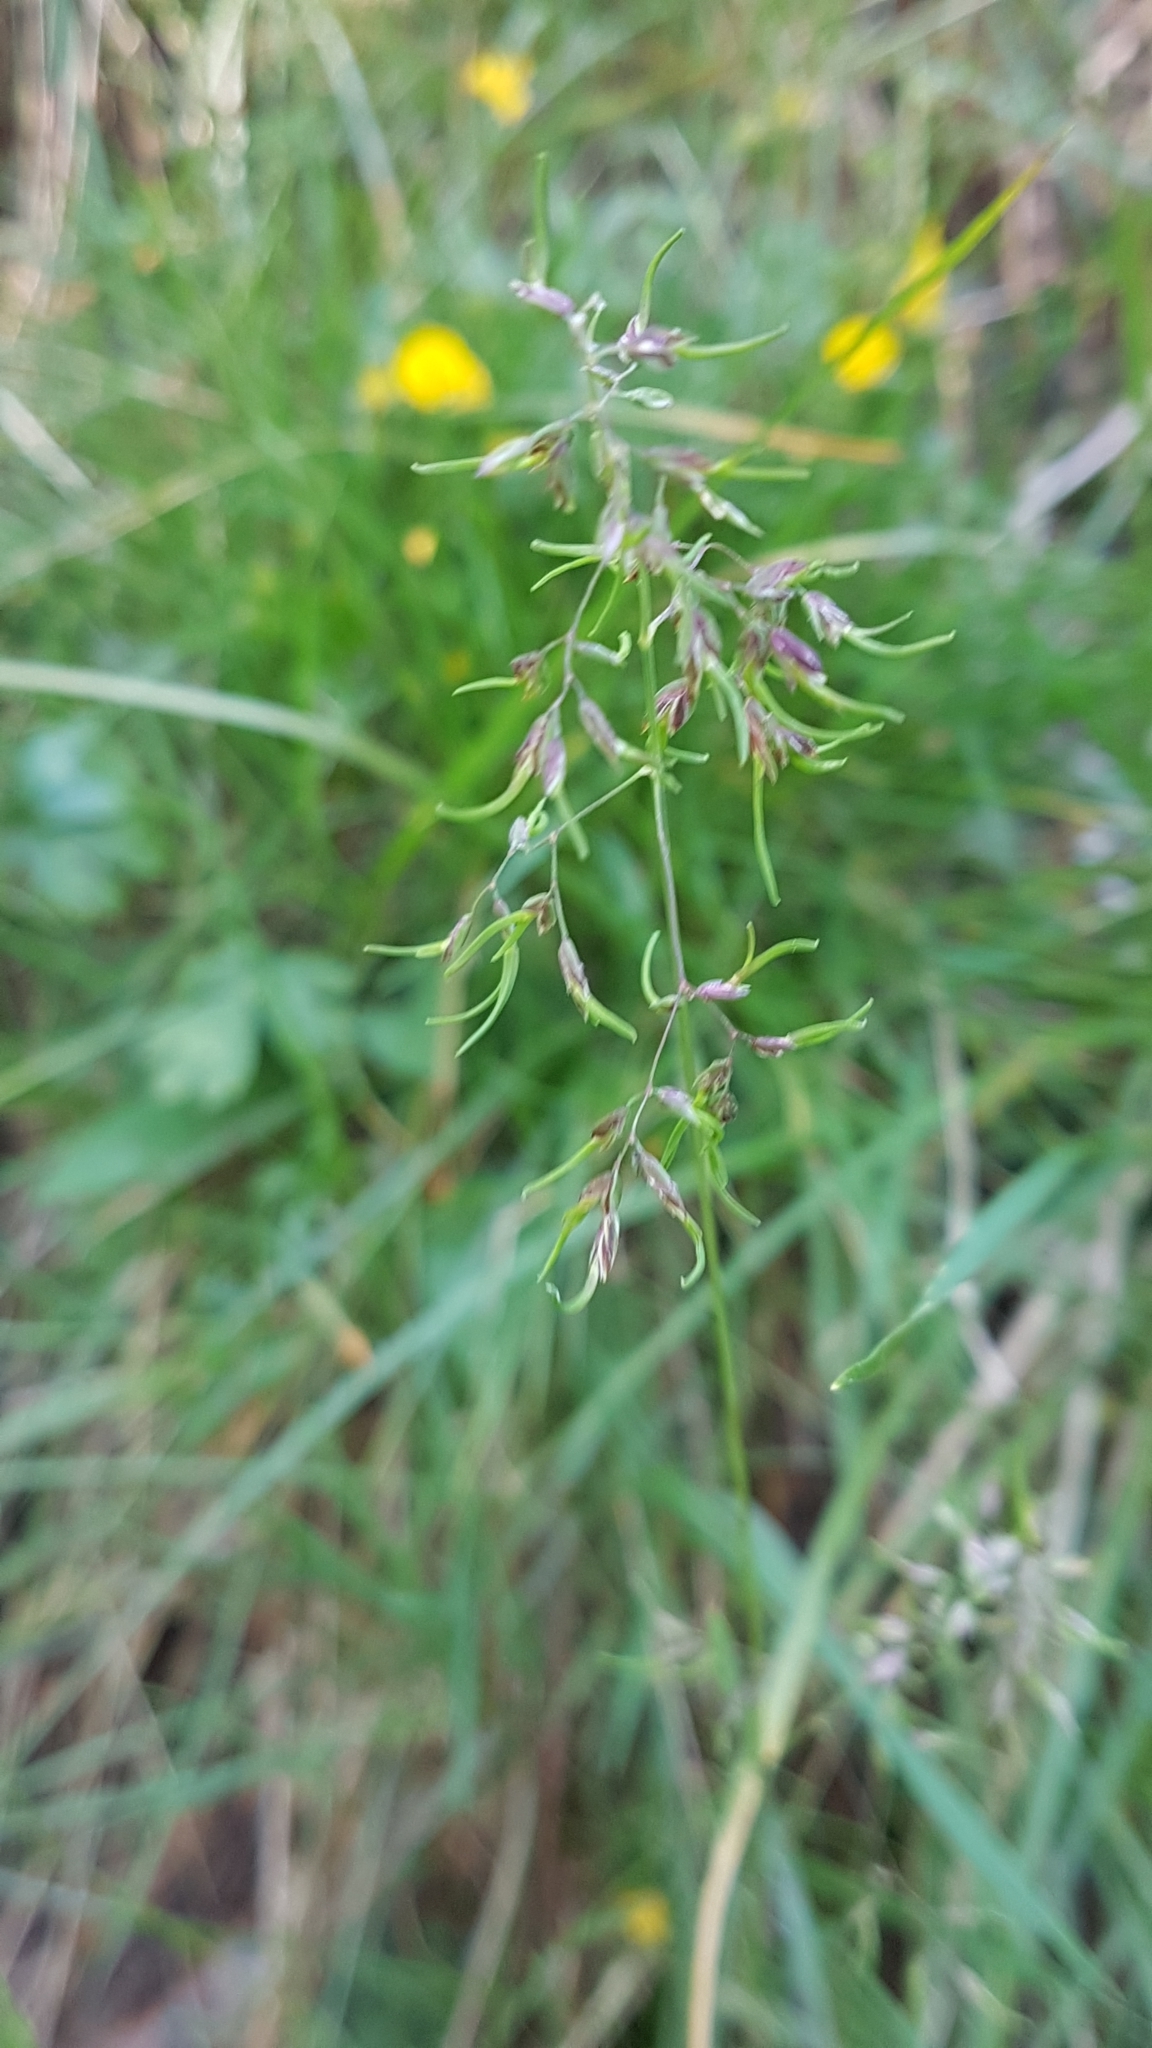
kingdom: Plantae
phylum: Tracheophyta
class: Liliopsida
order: Poales
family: Poaceae
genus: Poa
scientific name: Poa bulbosa
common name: Bulbous bluegrass
